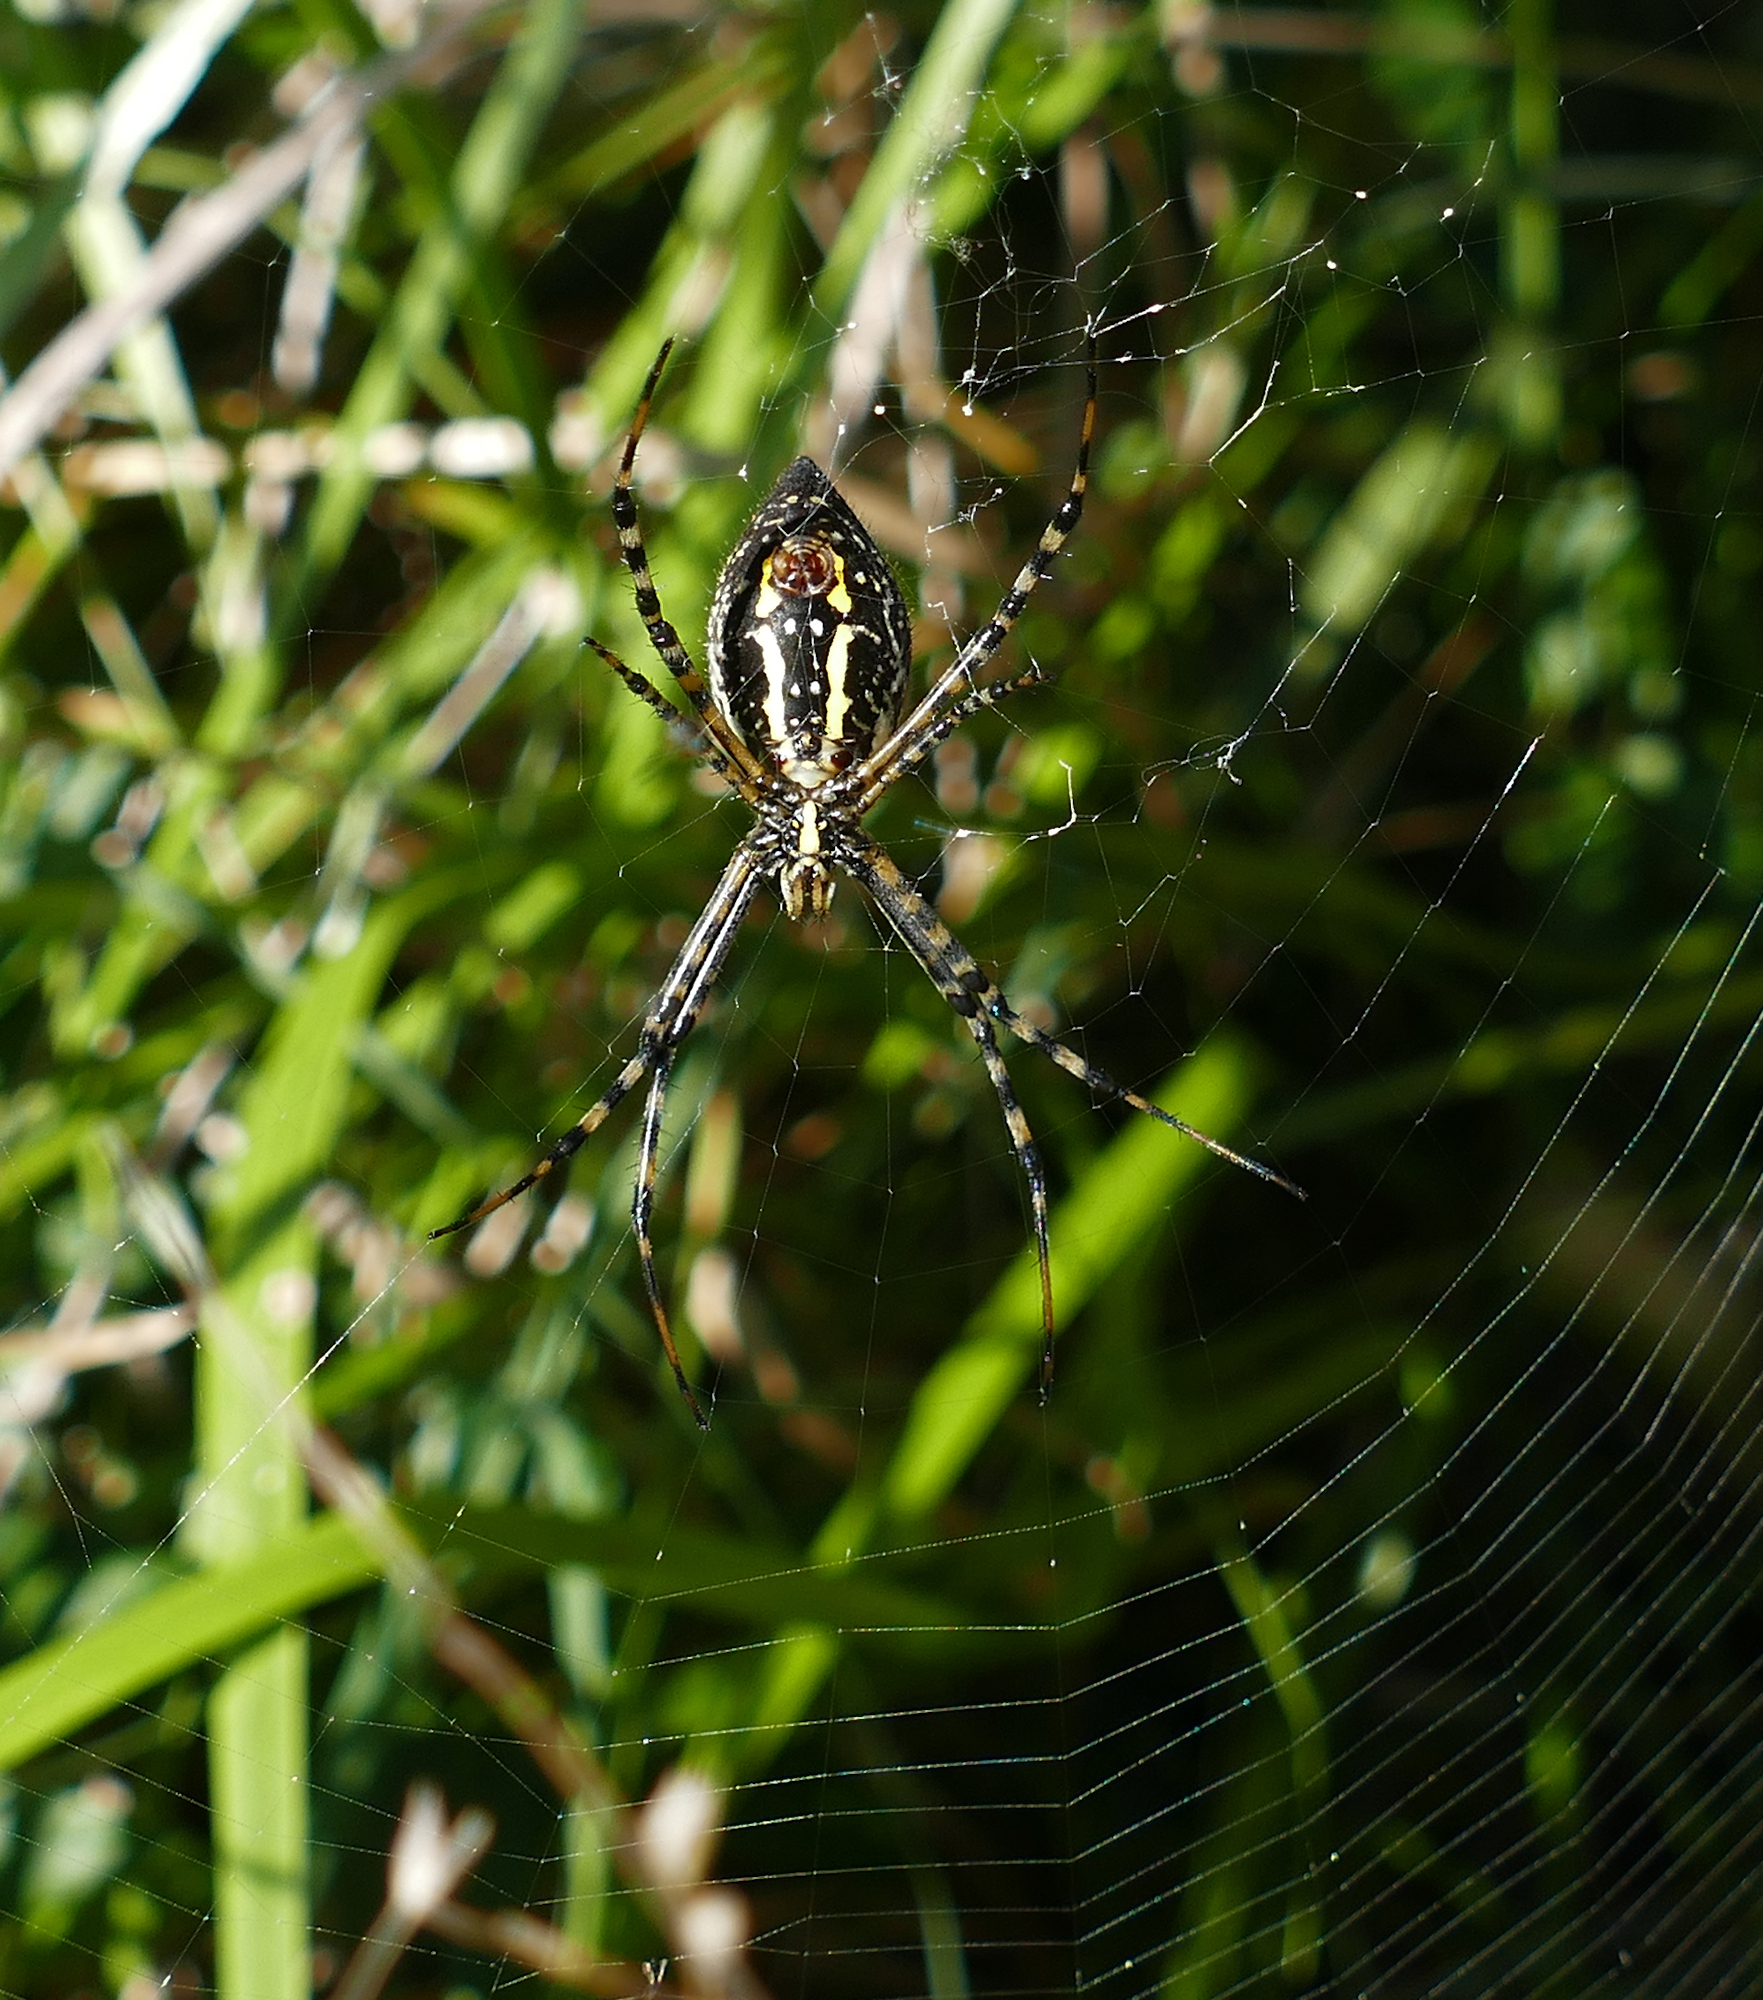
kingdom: Animalia
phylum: Arthropoda
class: Arachnida
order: Araneae
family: Araneidae
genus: Argiope
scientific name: Argiope trifasciata
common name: Banded garden spider
